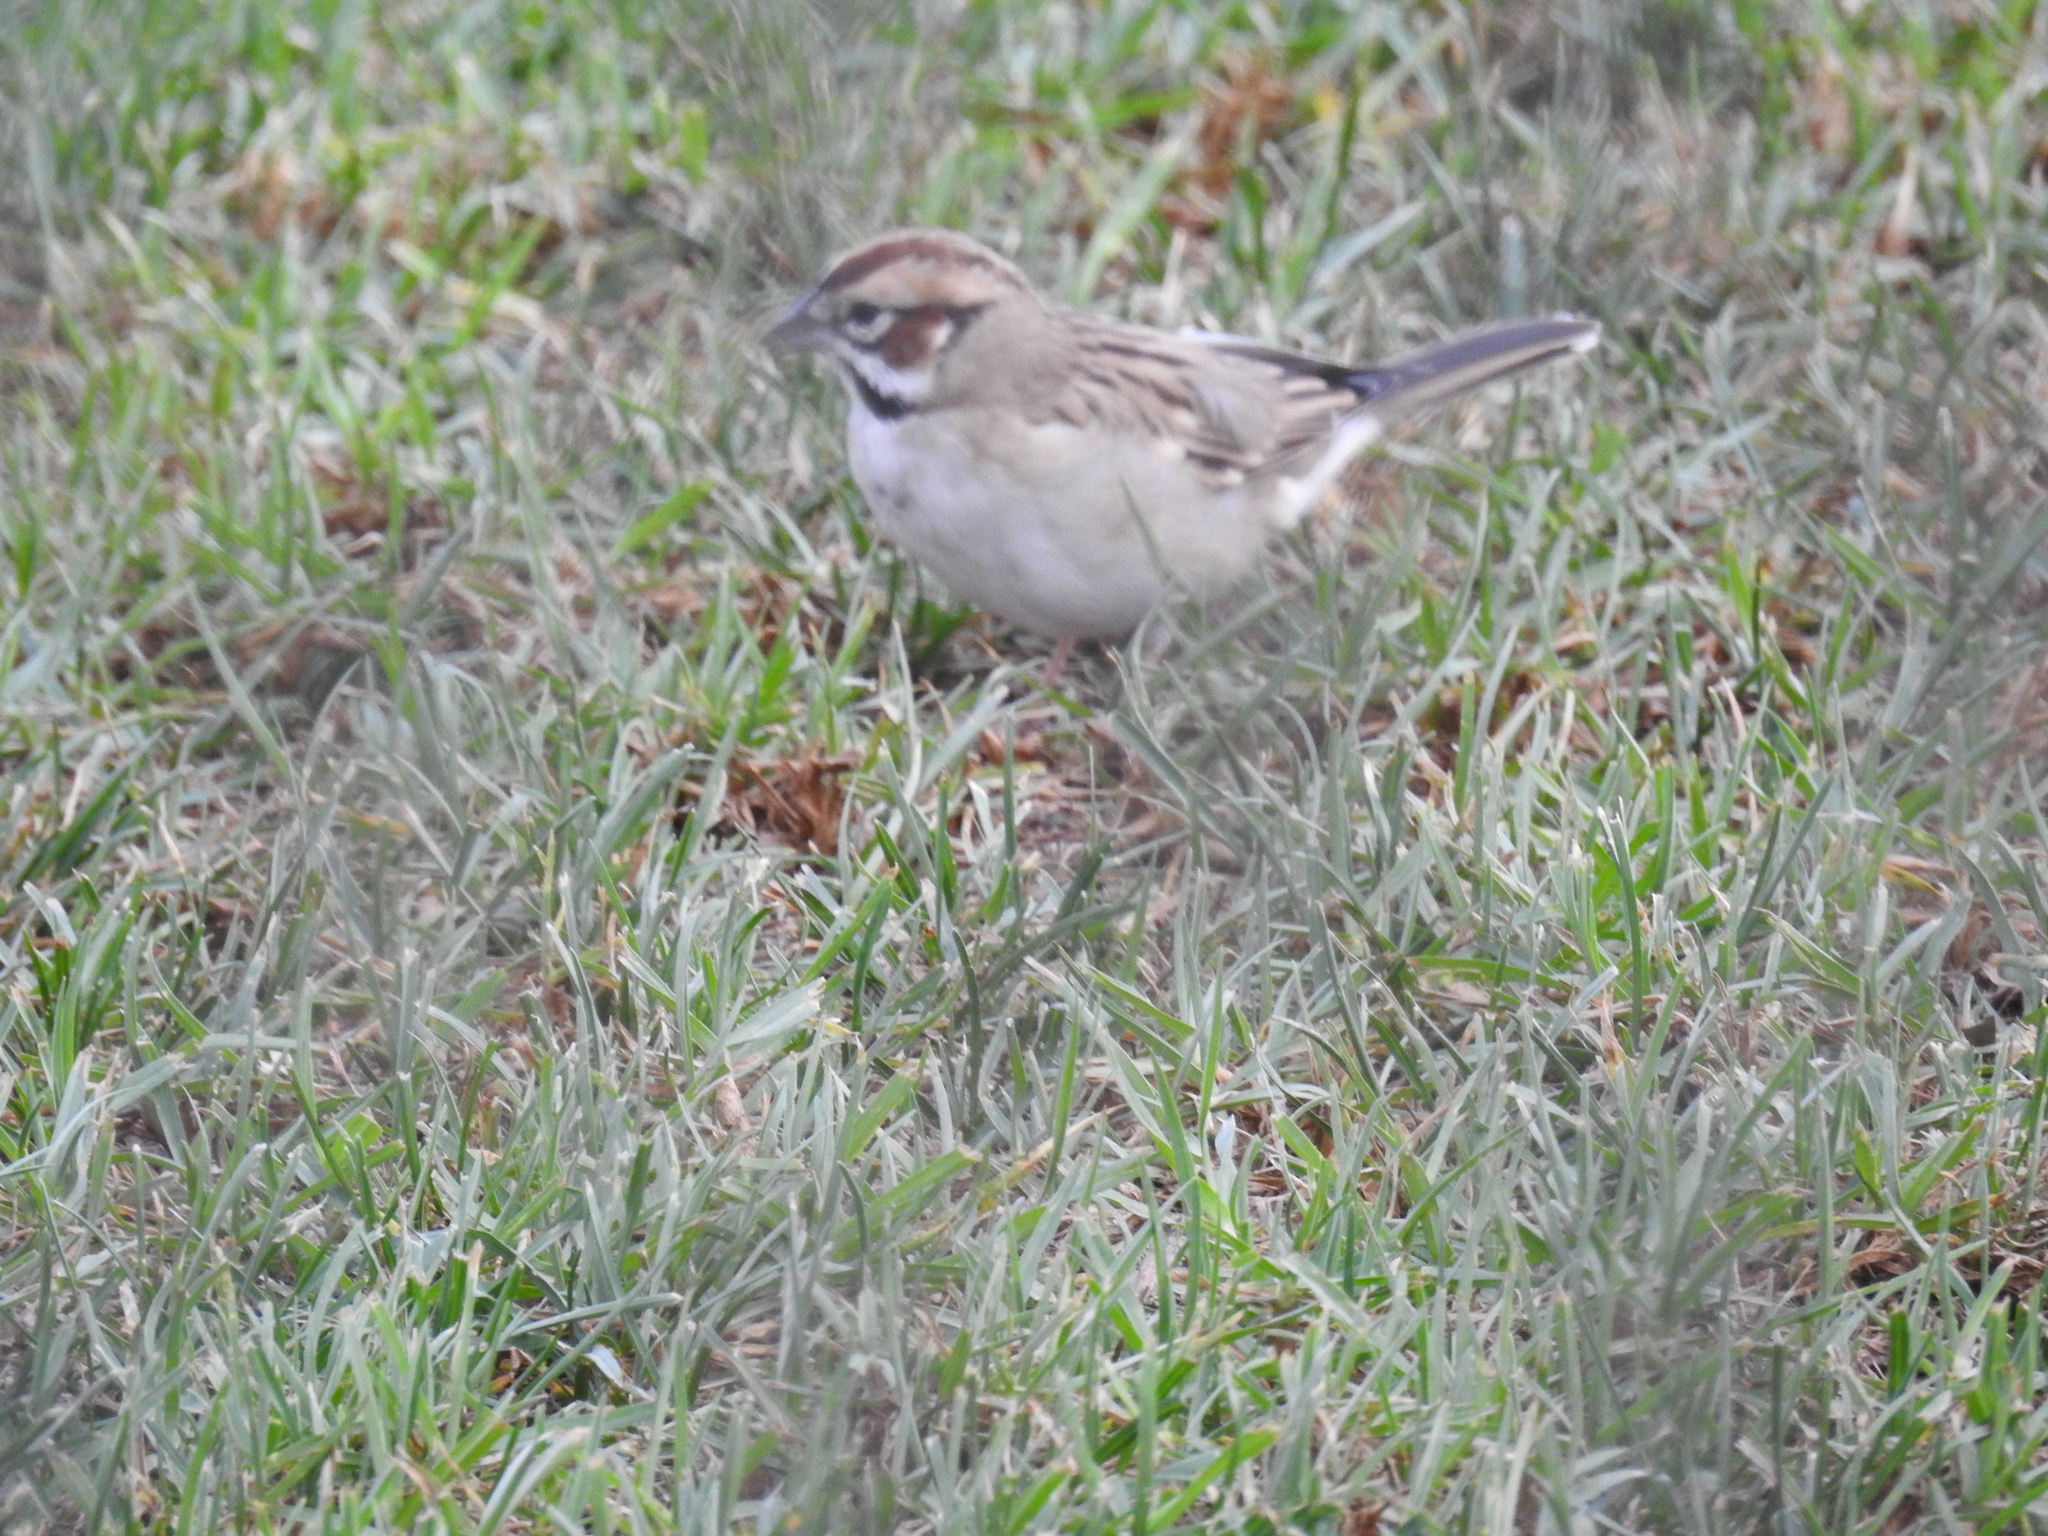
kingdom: Animalia
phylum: Chordata
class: Aves
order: Passeriformes
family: Passerellidae
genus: Chondestes
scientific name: Chondestes grammacus
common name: Lark sparrow
